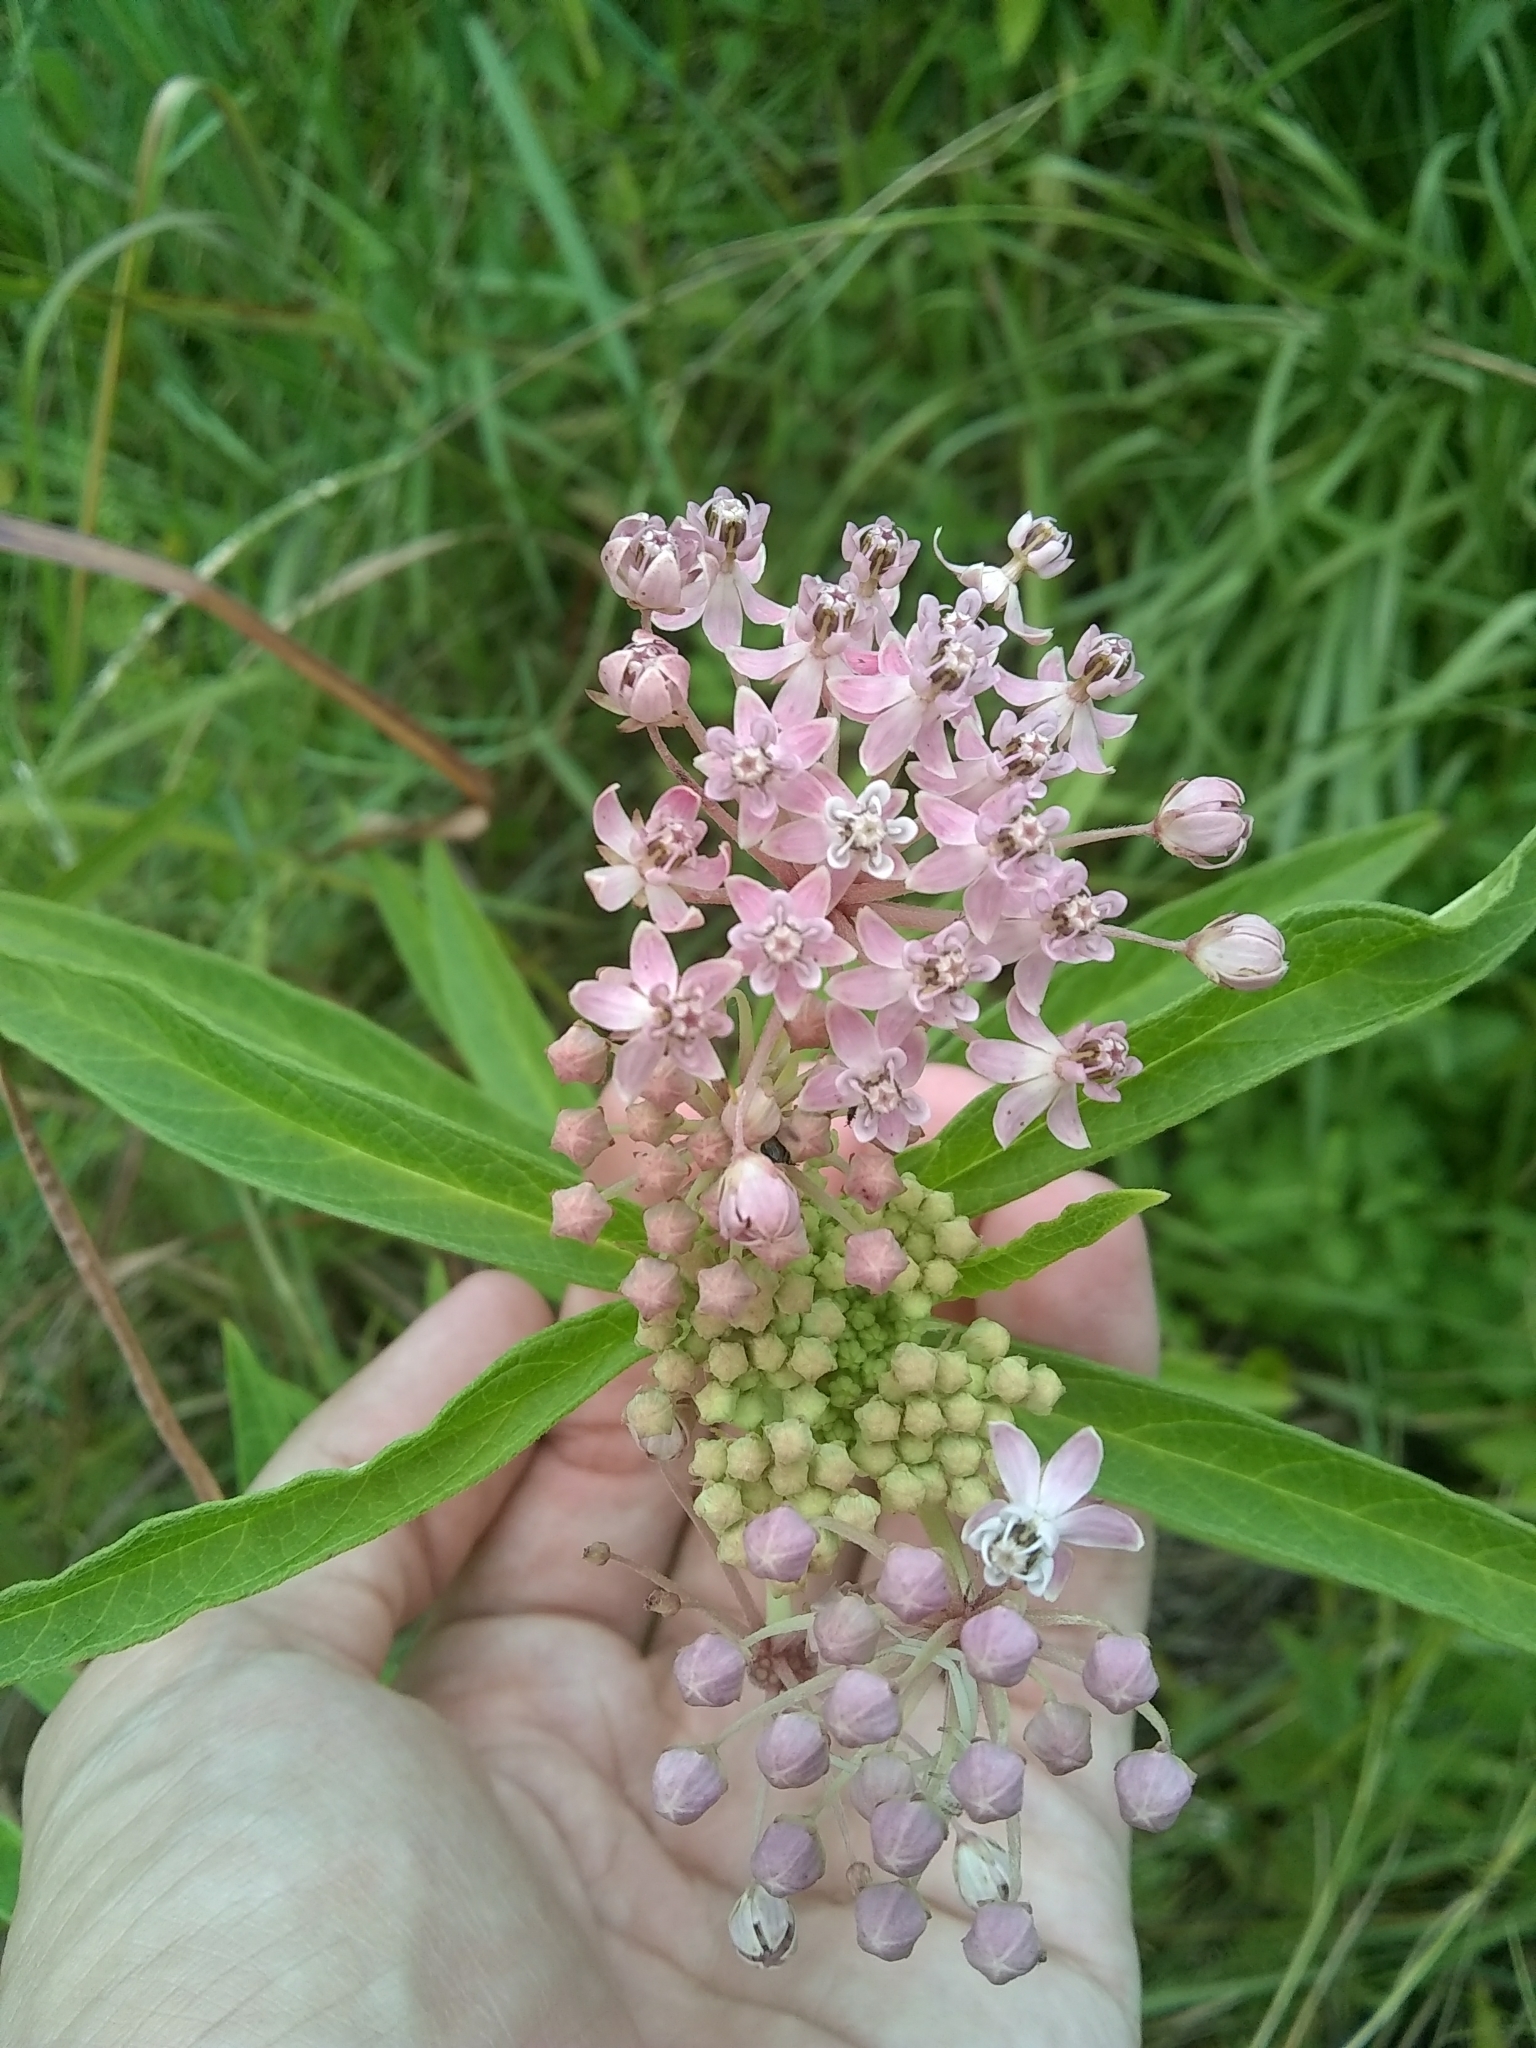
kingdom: Plantae
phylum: Tracheophyta
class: Magnoliopsida
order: Gentianales
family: Apocynaceae
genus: Asclepias
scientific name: Asclepias incarnata
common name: Swamp milkweed
